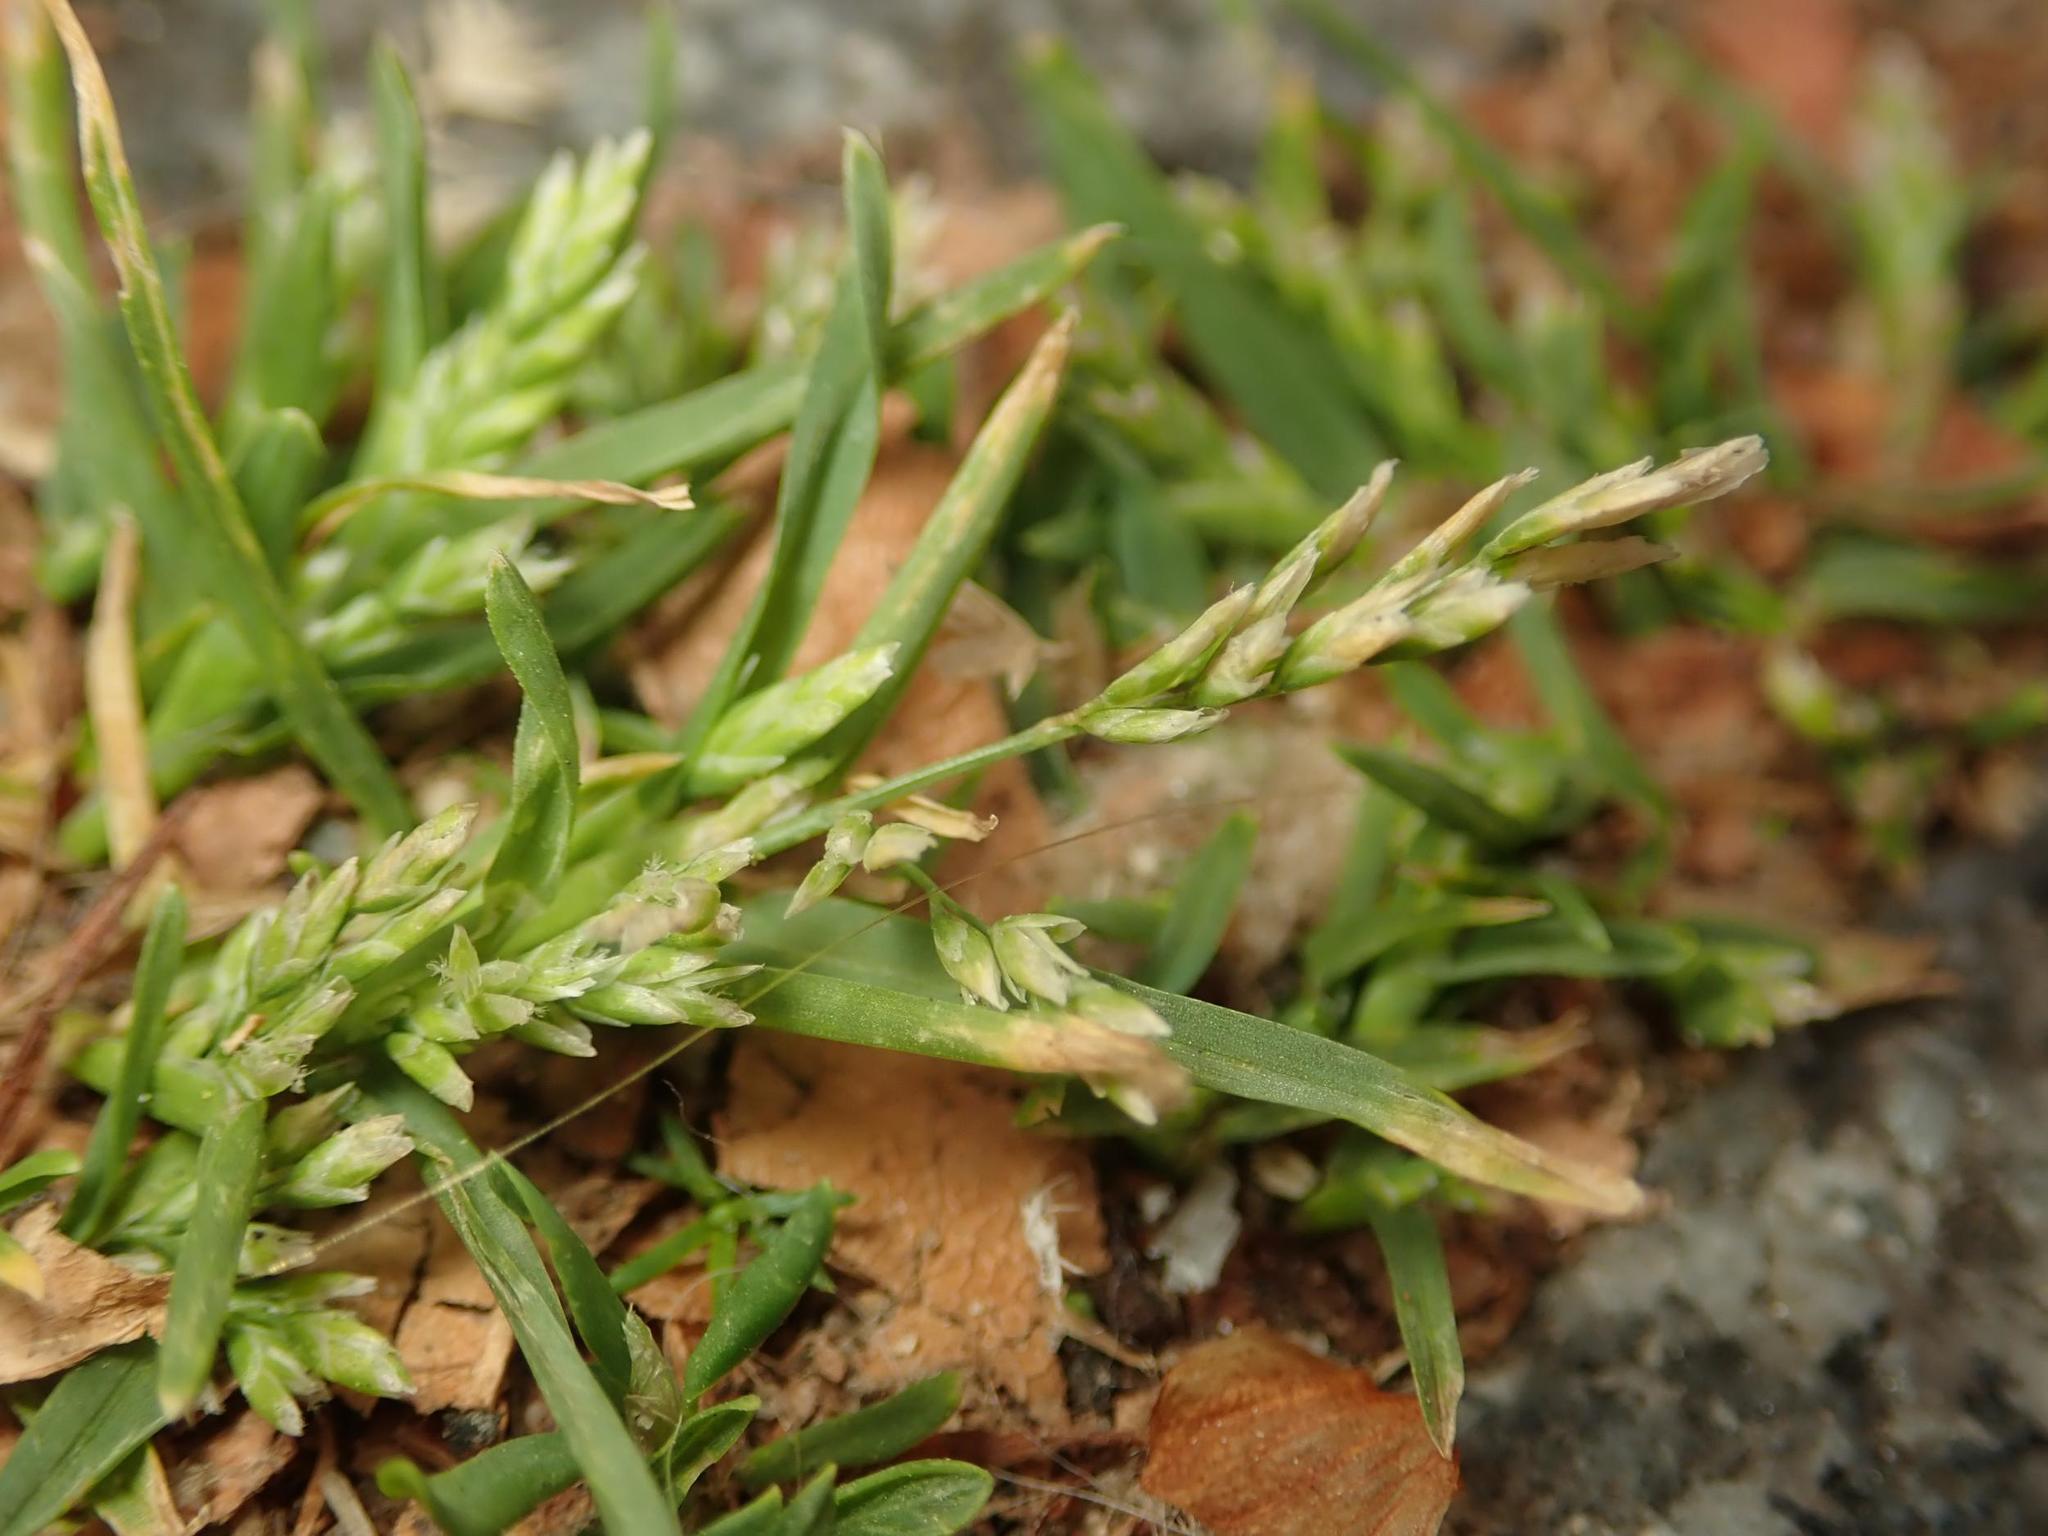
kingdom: Plantae
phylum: Tracheophyta
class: Liliopsida
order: Poales
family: Poaceae
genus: Poa
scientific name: Poa annua
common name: Annual bluegrass
